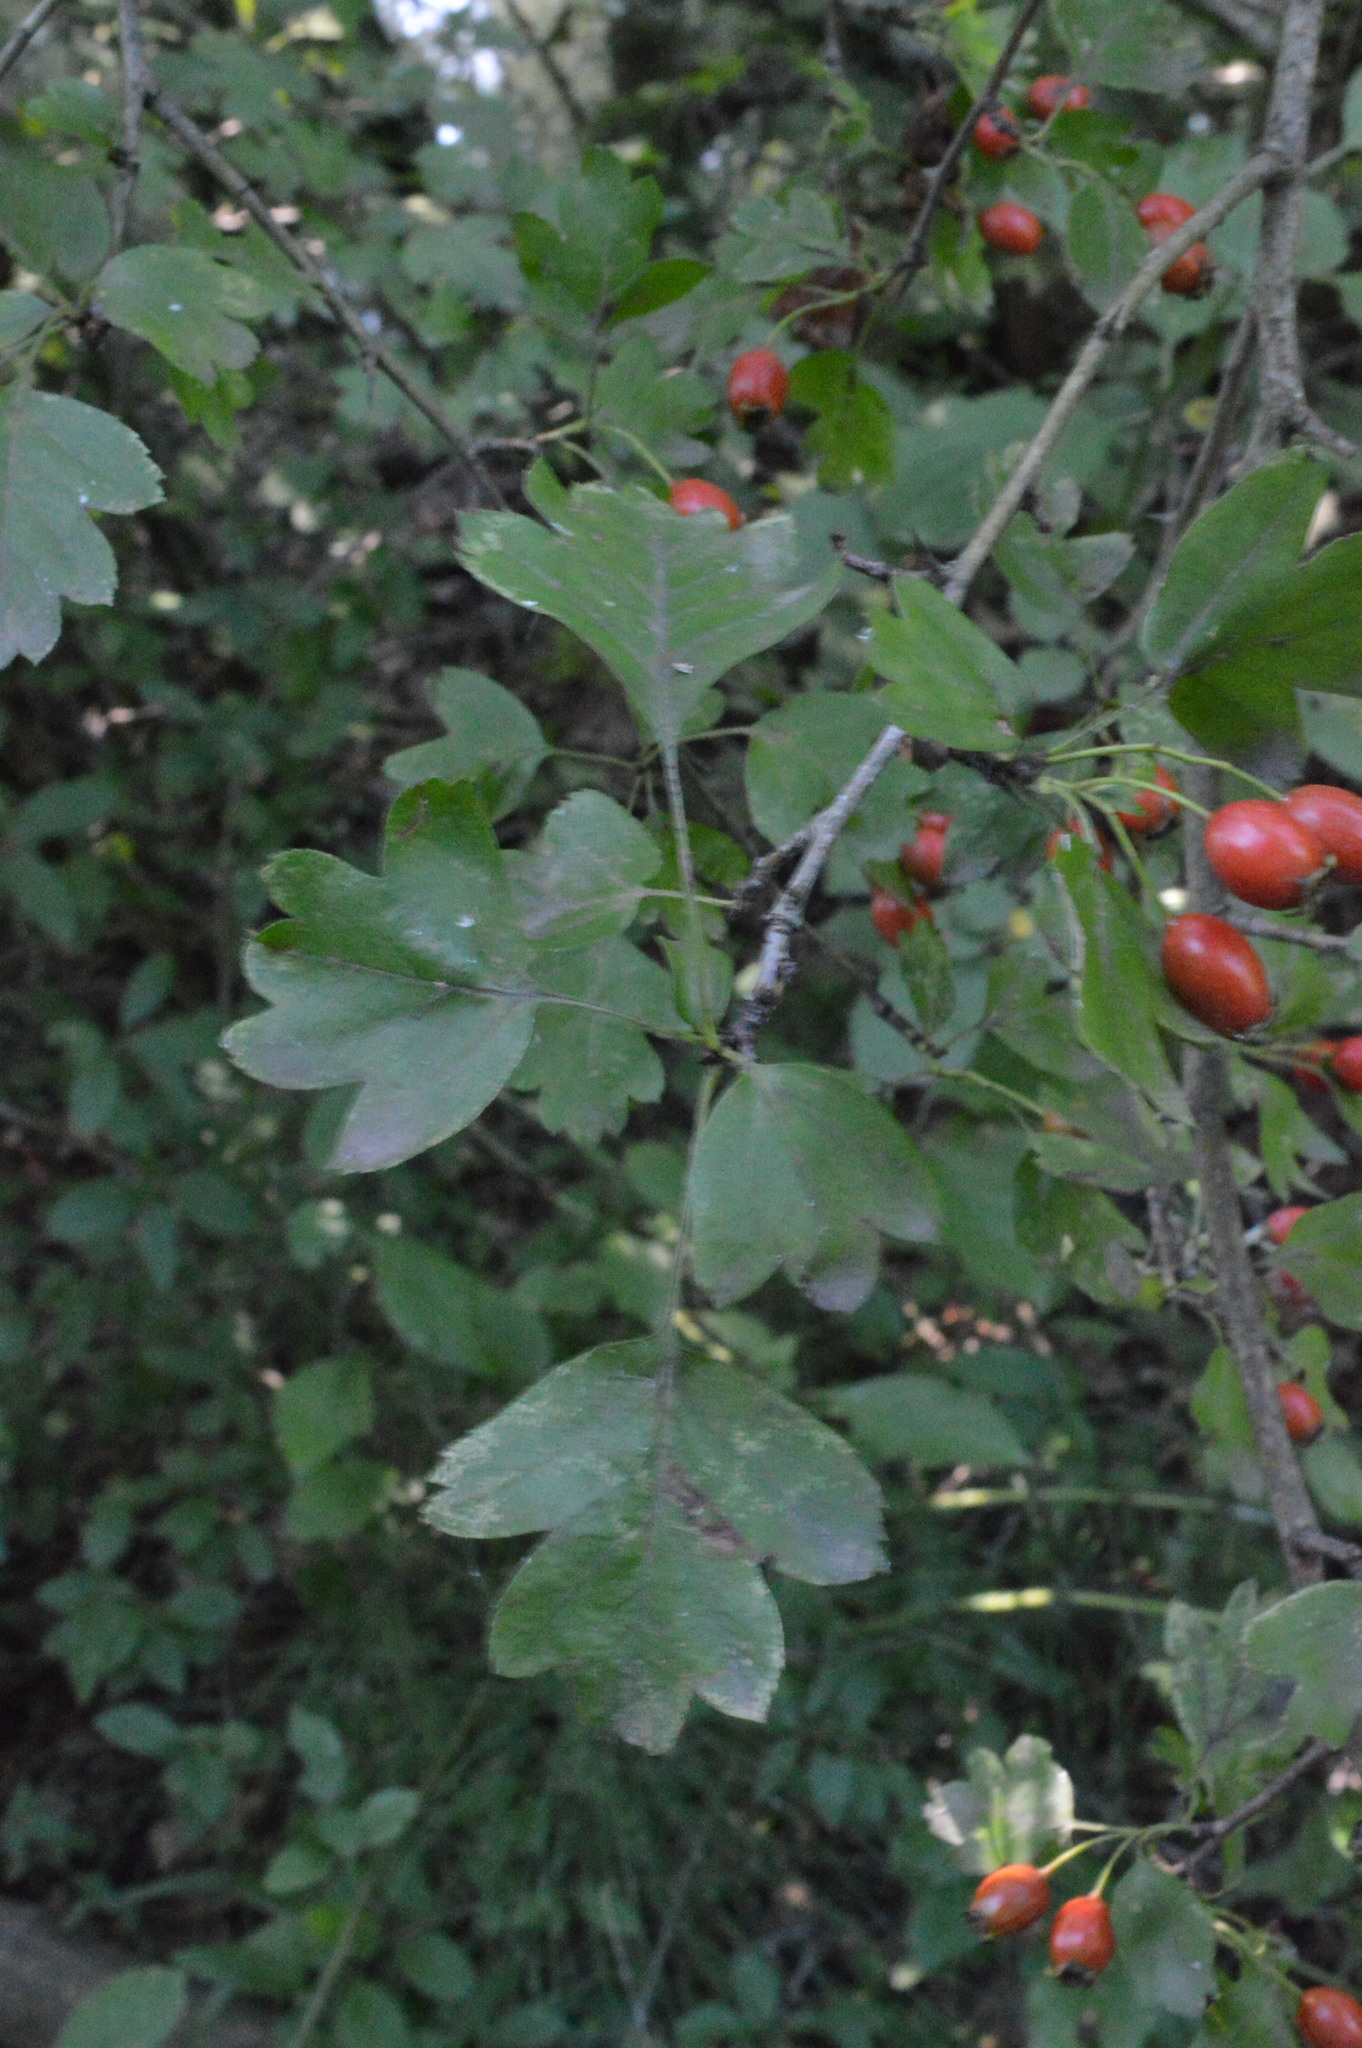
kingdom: Plantae
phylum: Tracheophyta
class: Magnoliopsida
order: Rosales
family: Rosaceae
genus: Crataegus
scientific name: Crataegus monogyna
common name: Hawthorn
